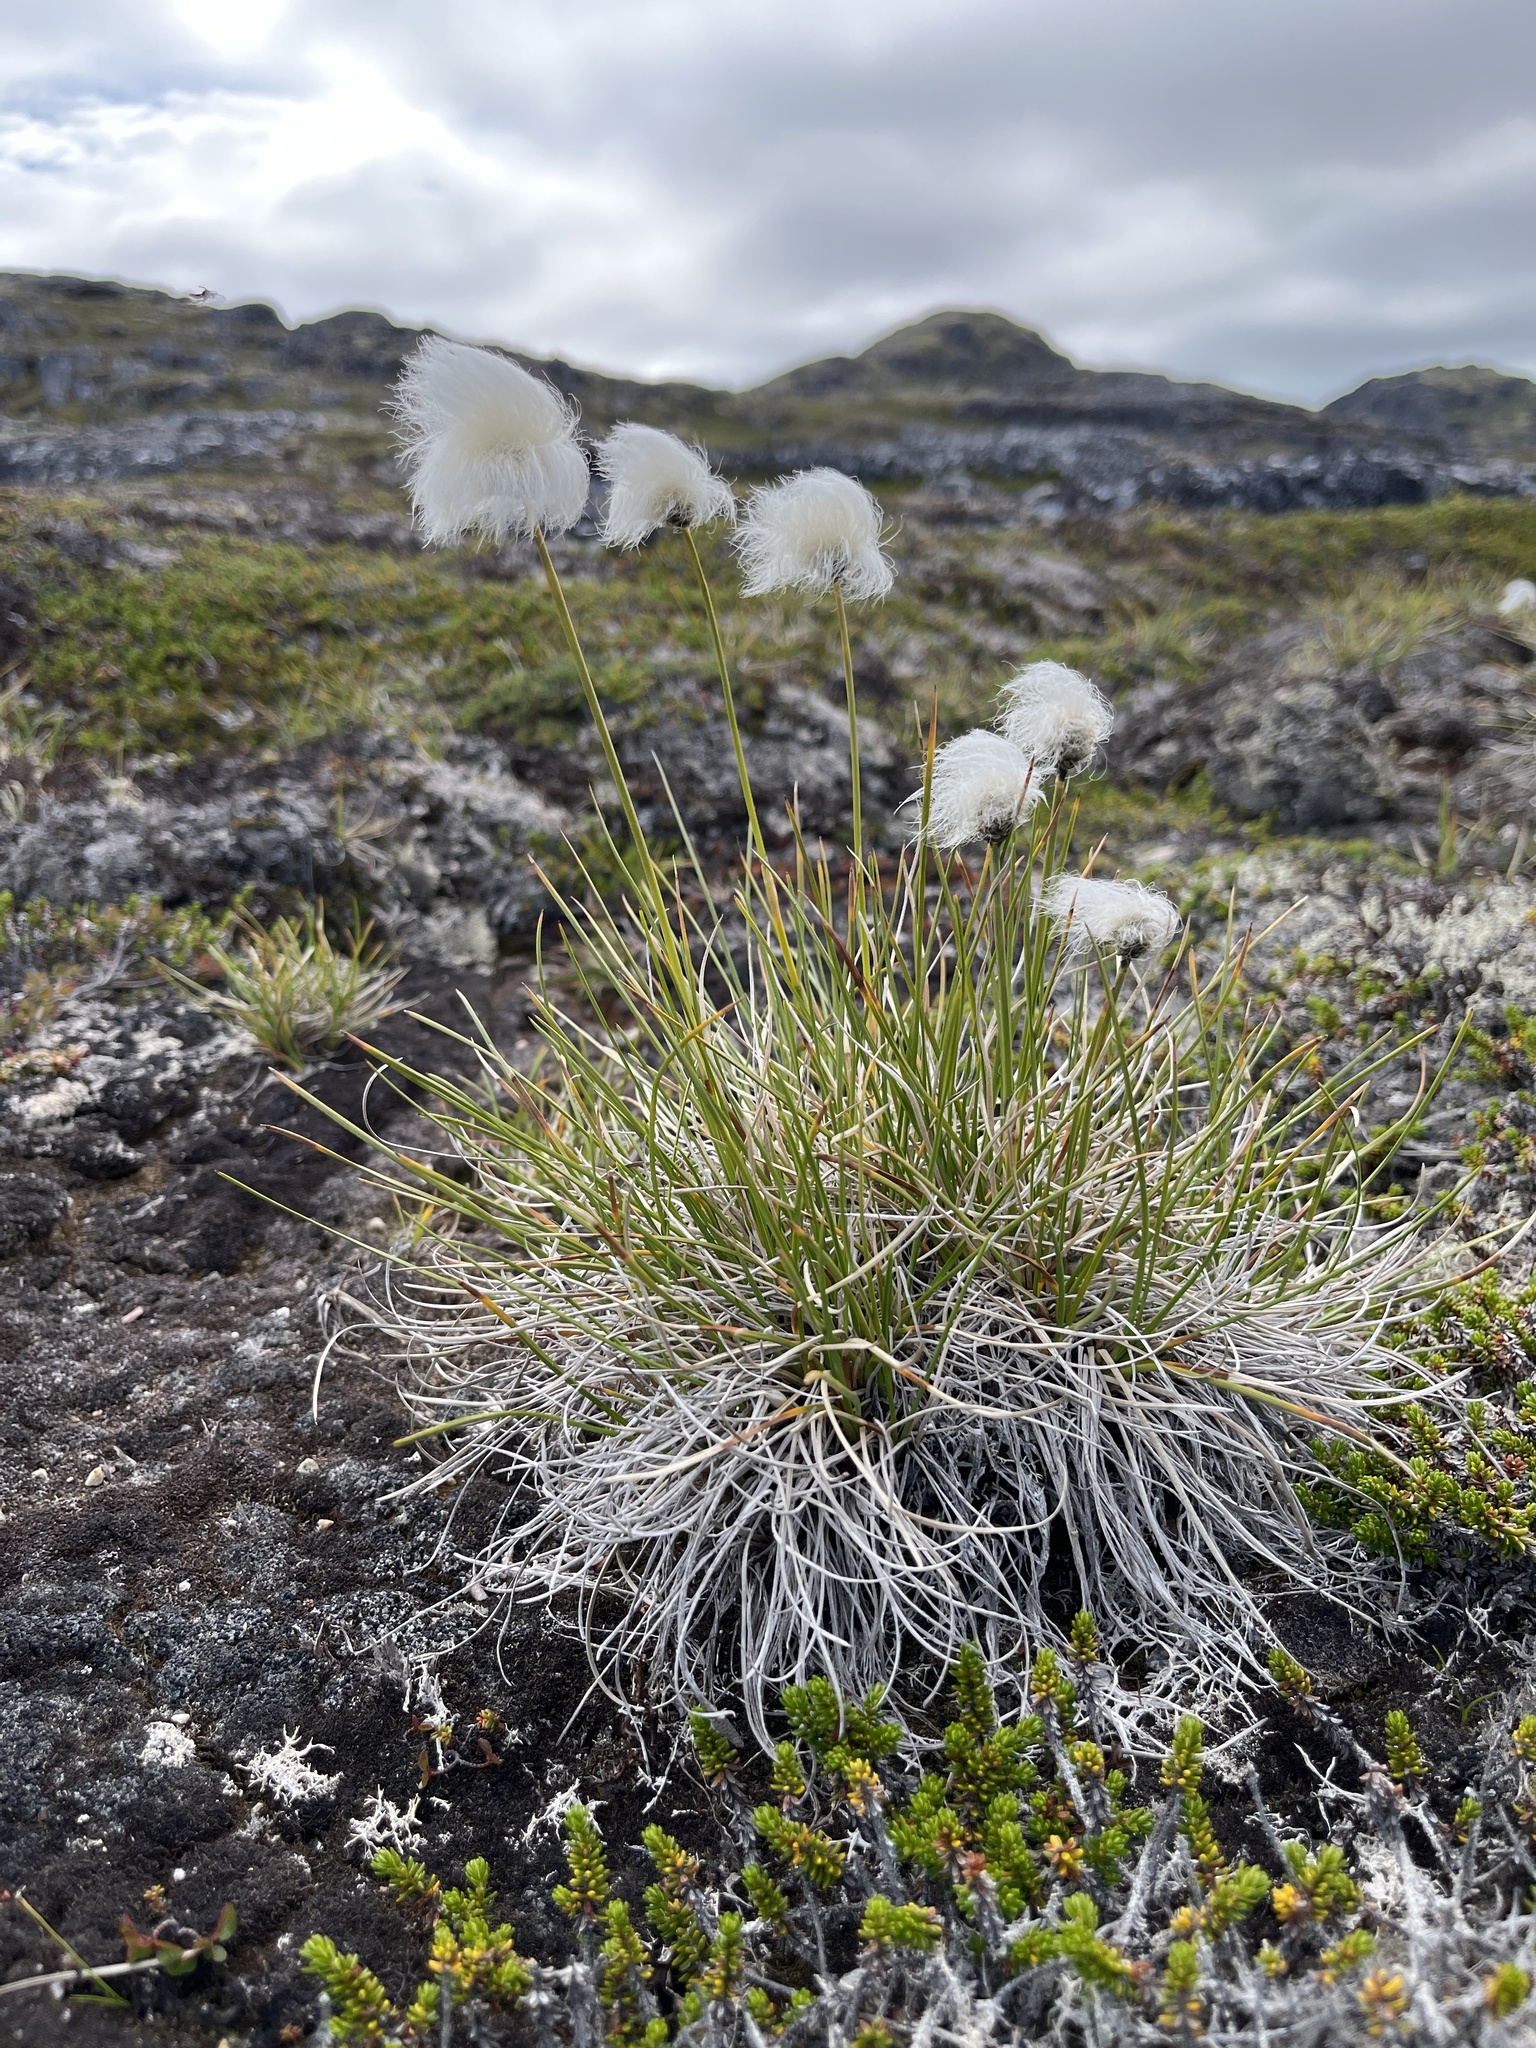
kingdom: Plantae
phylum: Tracheophyta
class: Liliopsida
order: Poales
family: Cyperaceae
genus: Eriophorum
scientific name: Eriophorum vaginatum
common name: Hare's-tail cottongrass
